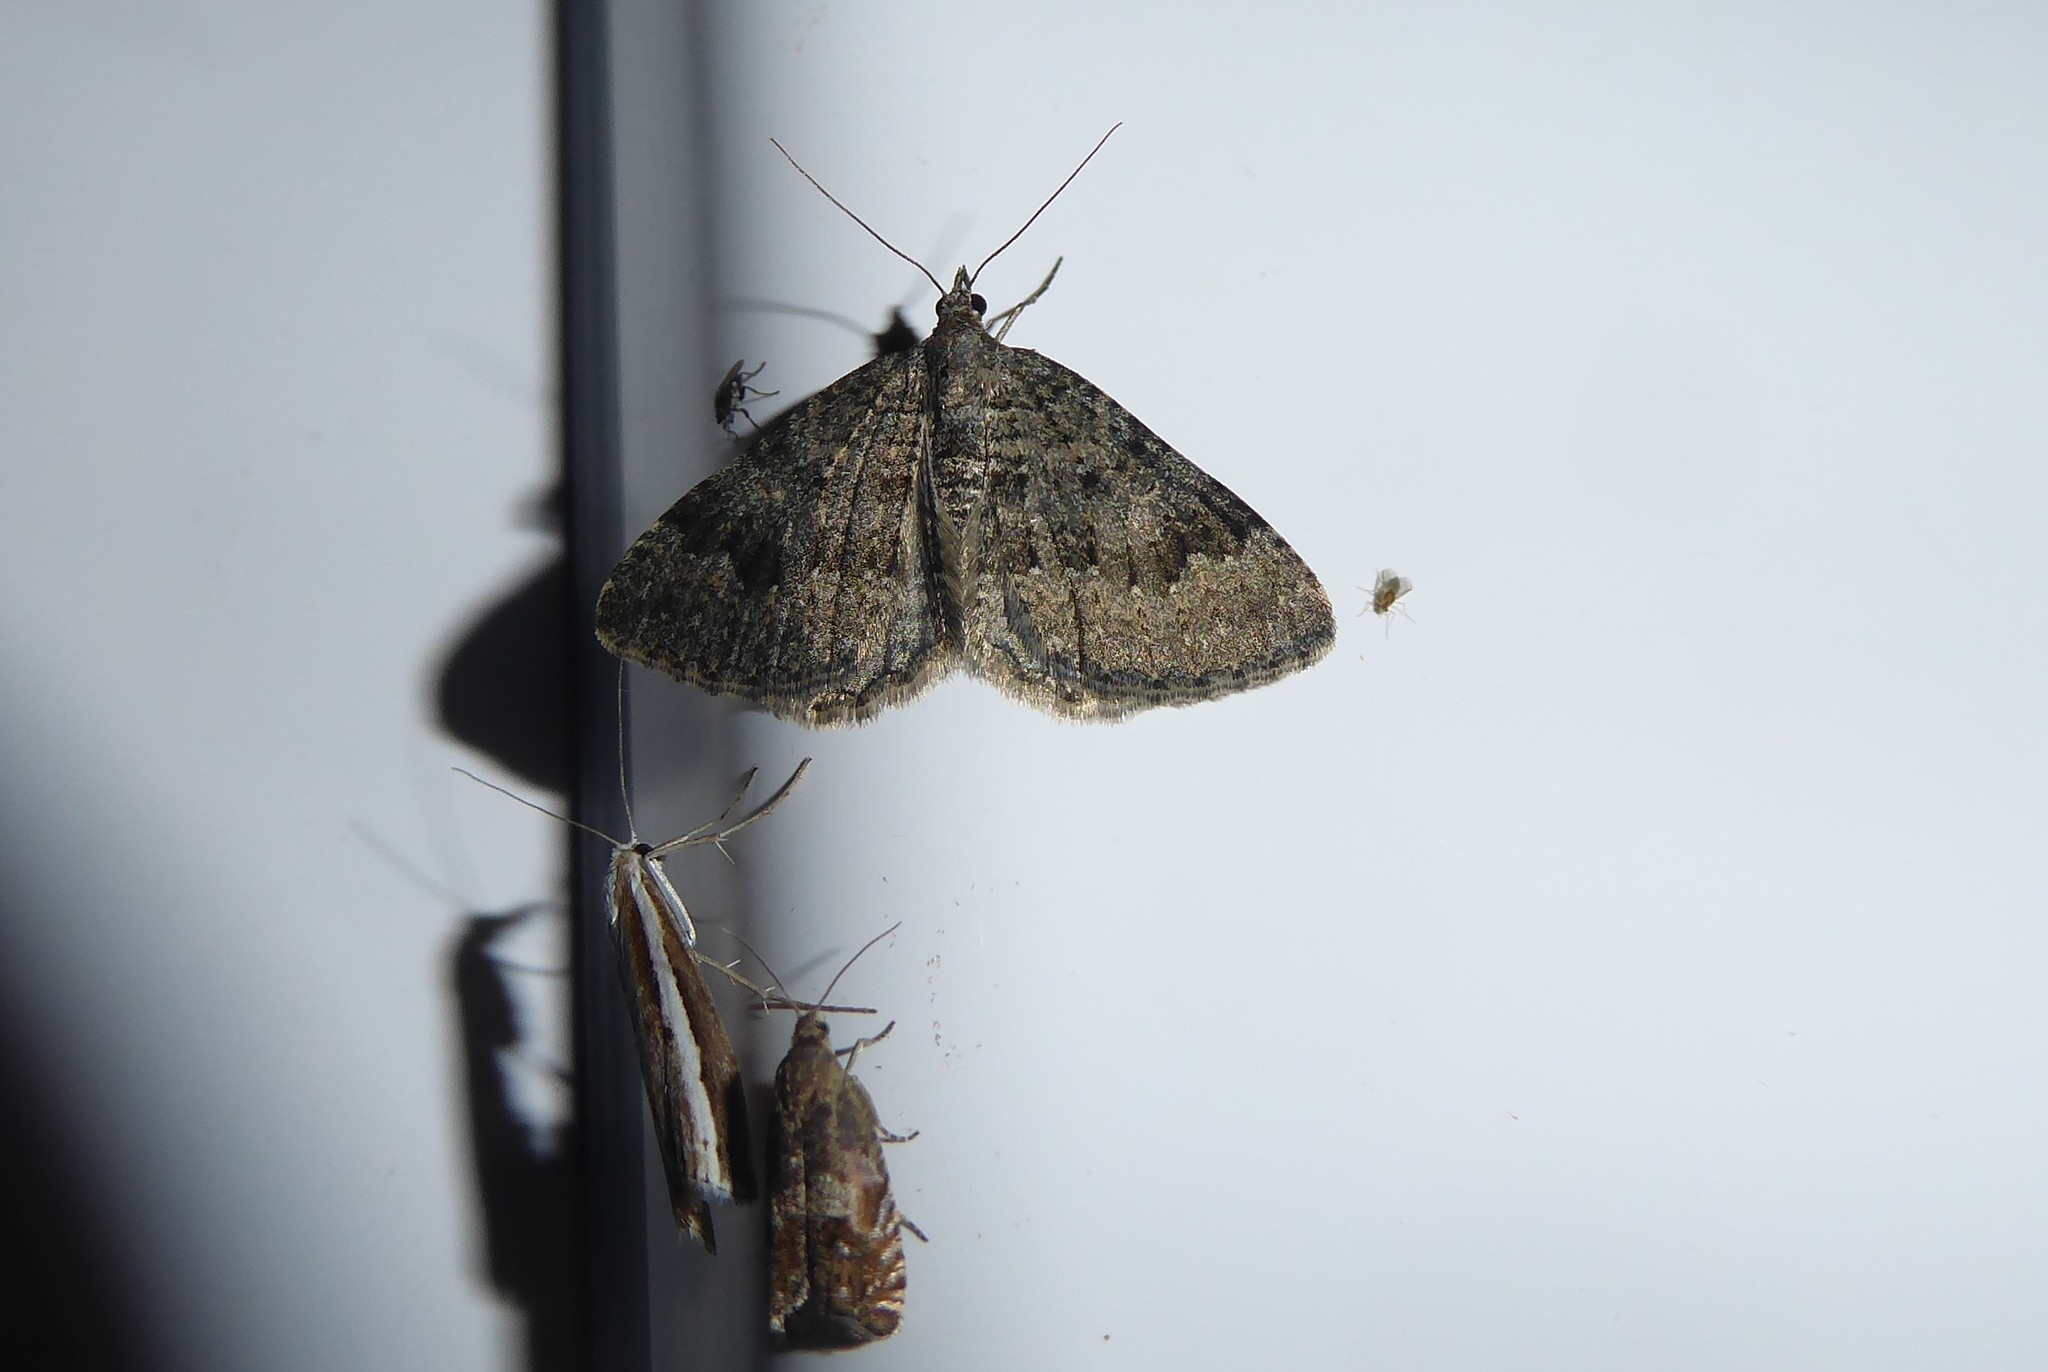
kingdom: Animalia
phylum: Arthropoda
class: Insecta
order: Lepidoptera
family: Geometridae
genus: Helastia
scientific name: Helastia corcularia
